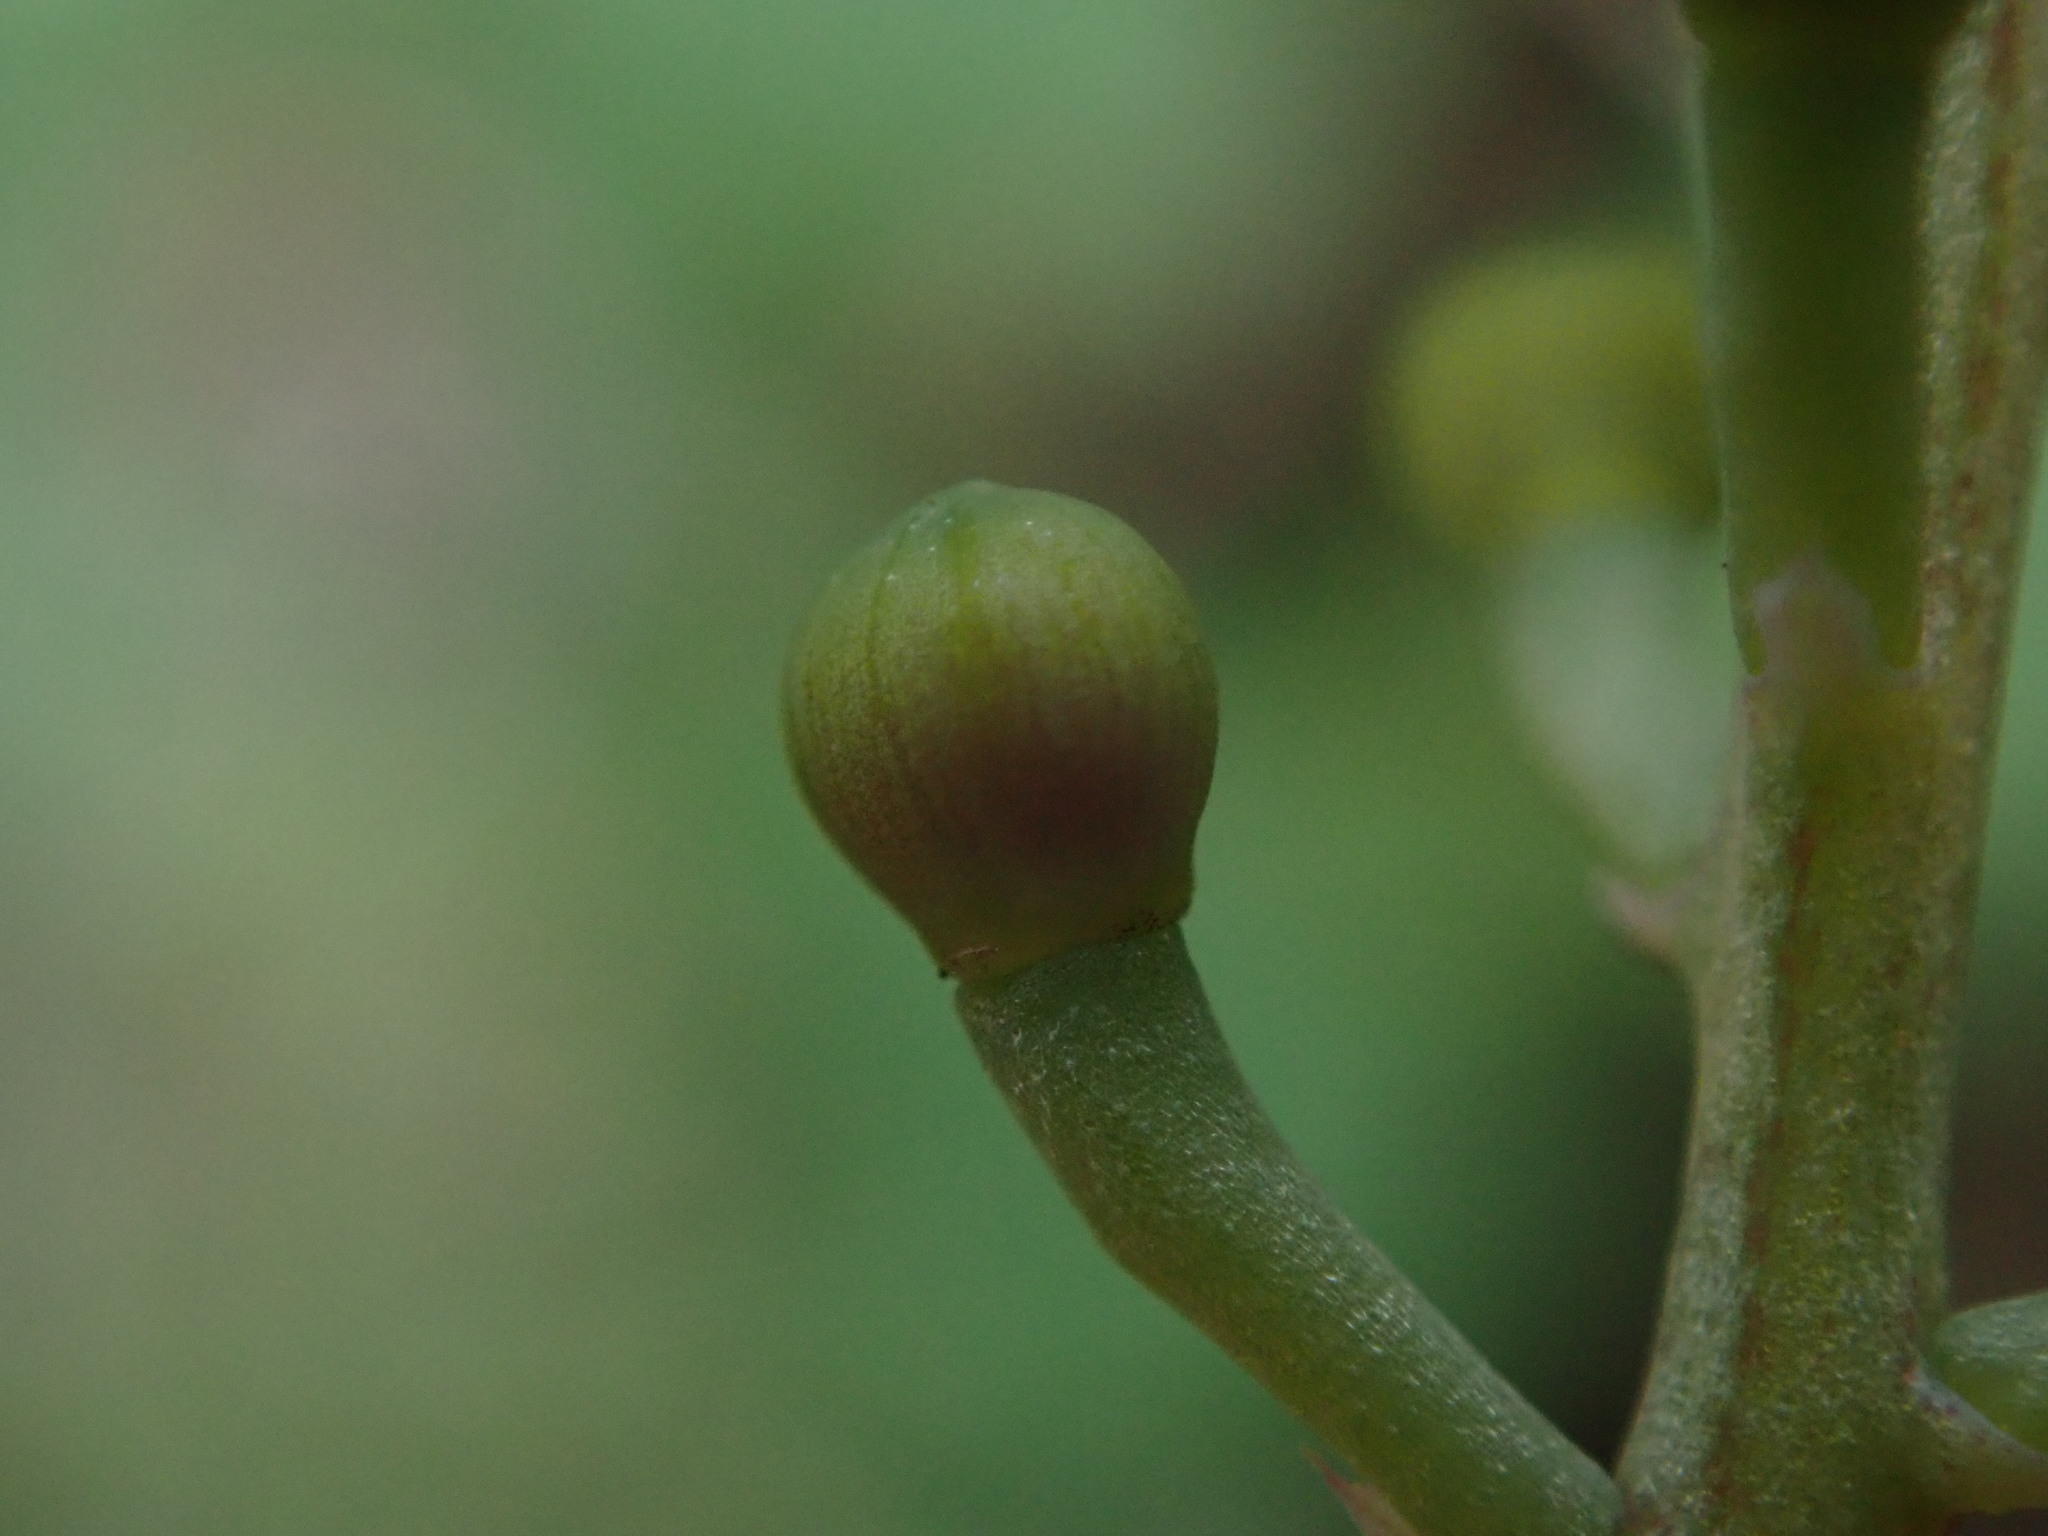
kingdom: Plantae
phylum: Tracheophyta
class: Magnoliopsida
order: Ranunculales
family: Papaveraceae
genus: Fumaria
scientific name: Fumaria wirtgenii
